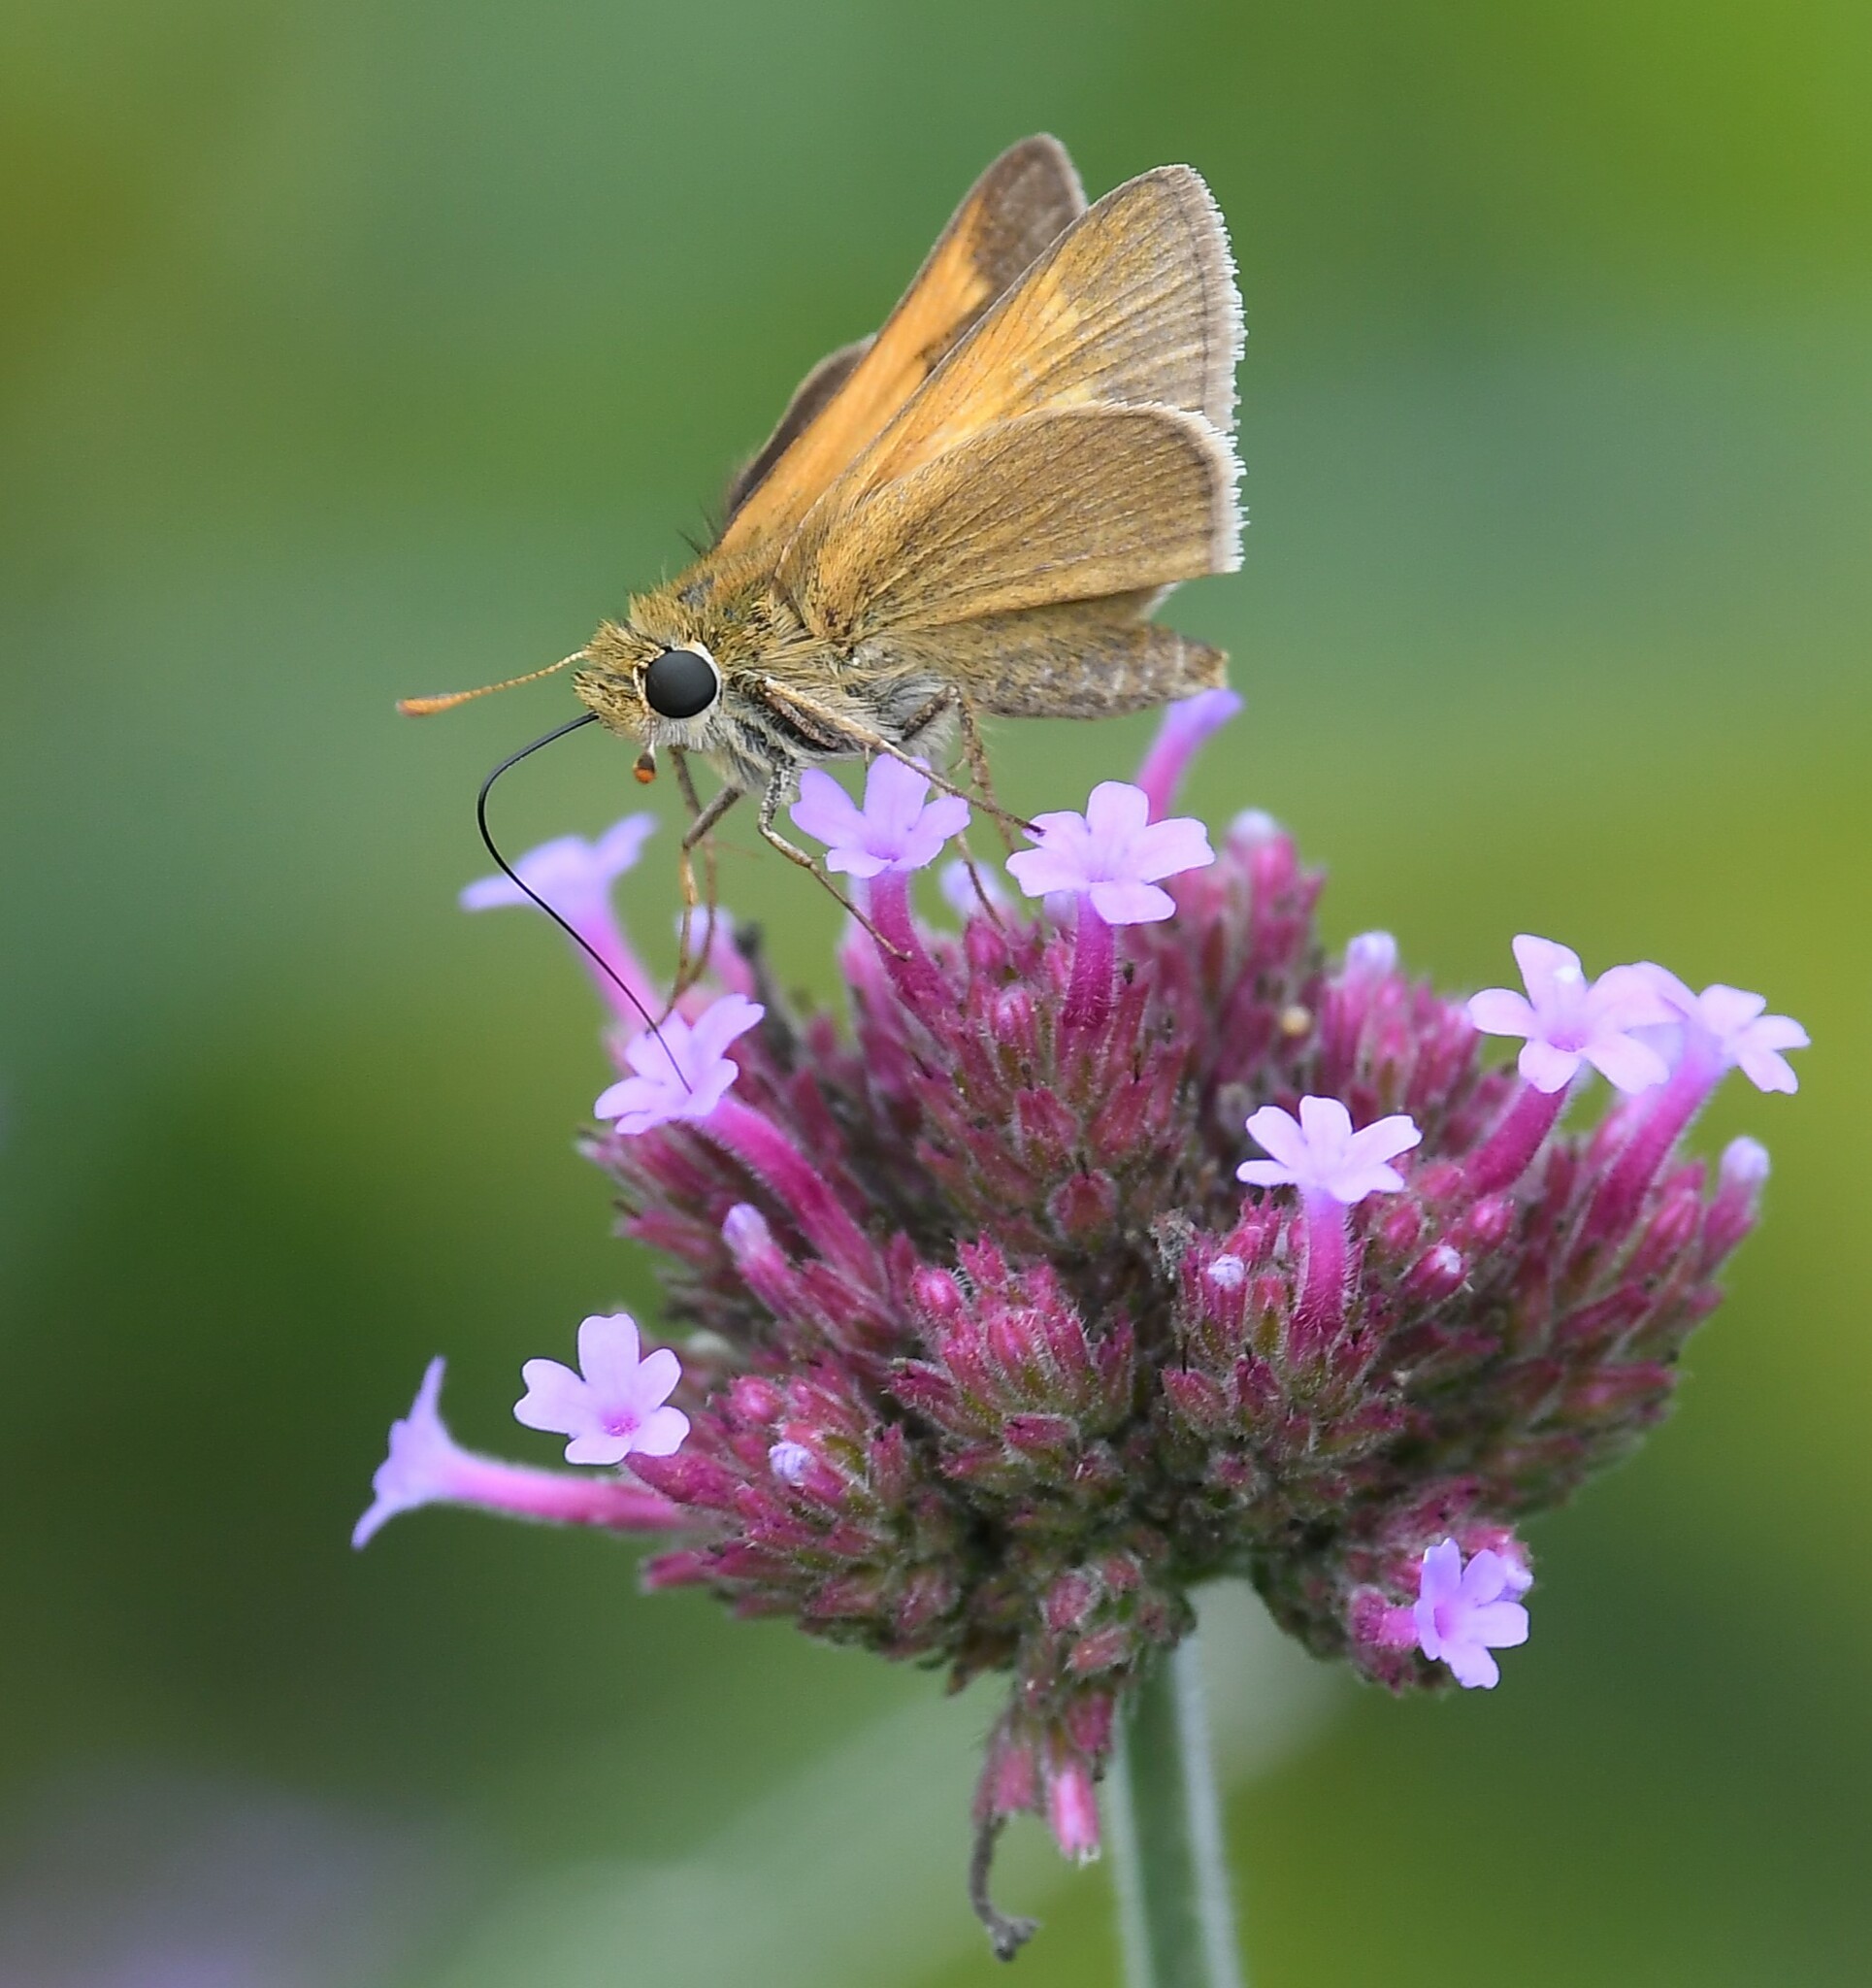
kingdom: Animalia
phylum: Arthropoda
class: Insecta
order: Lepidoptera
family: Hesperiidae
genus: Polites
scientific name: Polites themistocles
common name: Tawny-edged skipper
